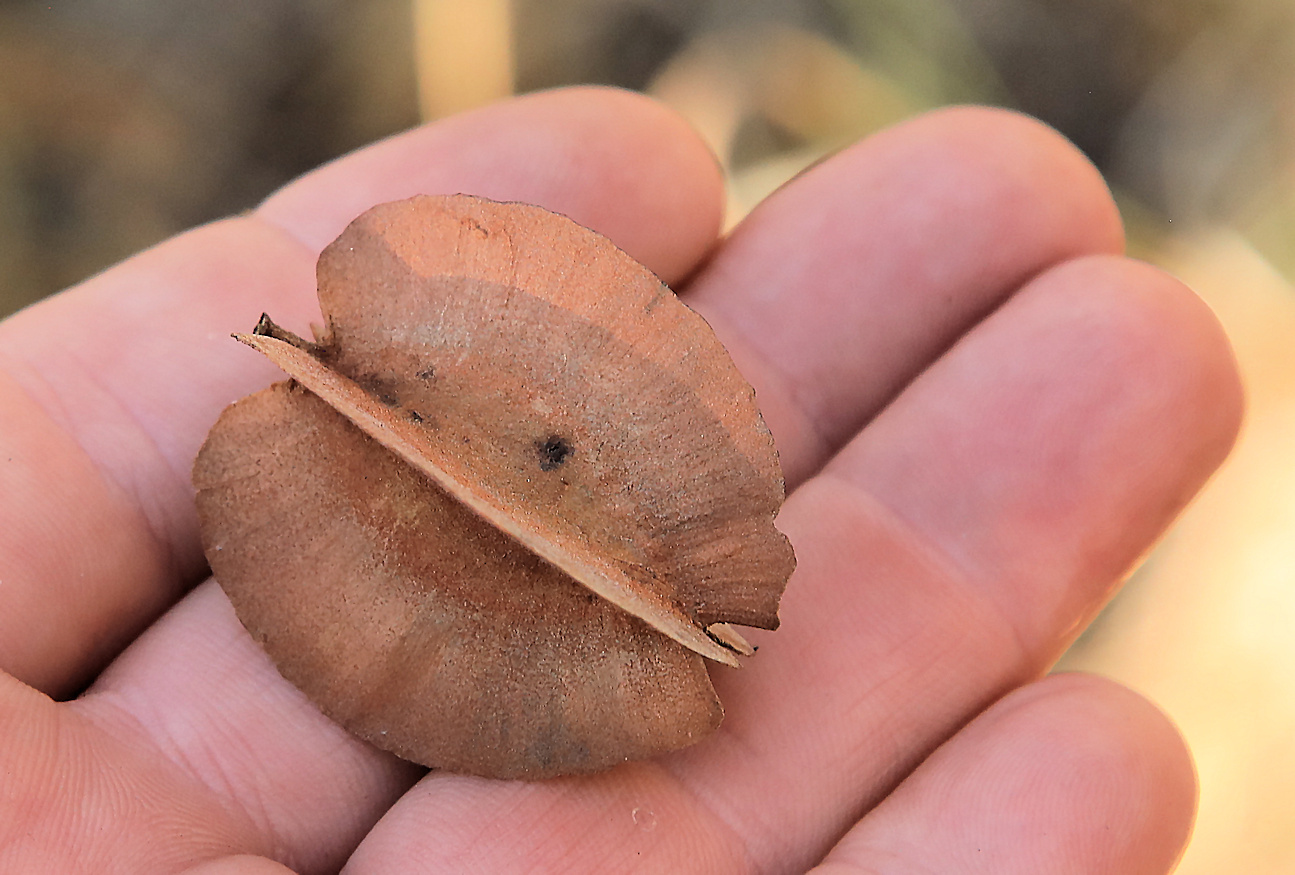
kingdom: Plantae
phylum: Tracheophyta
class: Magnoliopsida
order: Myrtales
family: Combretaceae
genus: Combretum
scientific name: Combretum collinum
